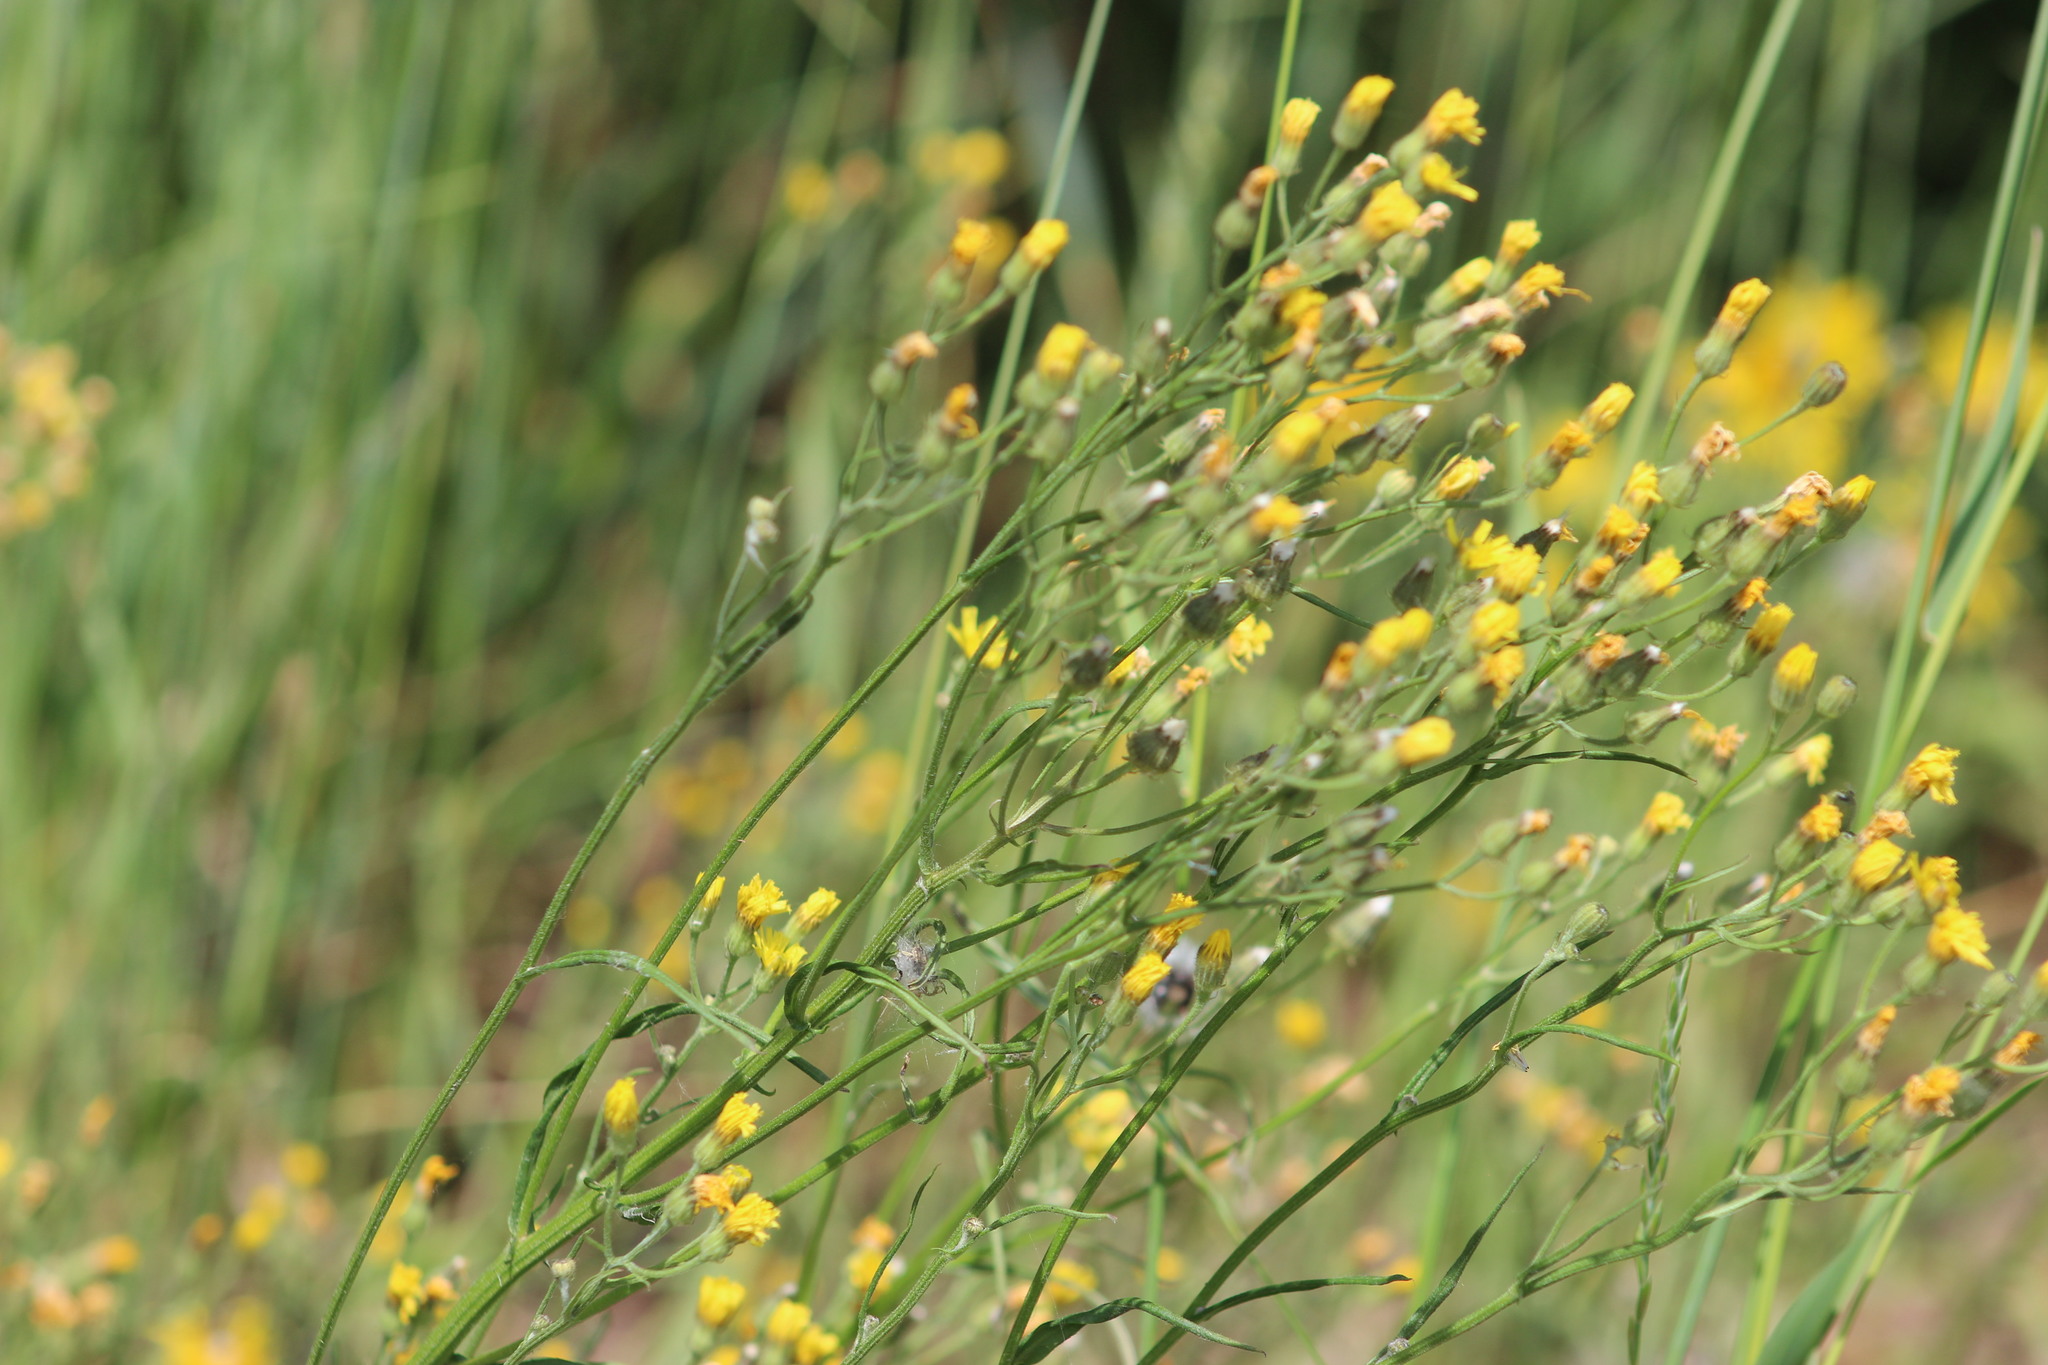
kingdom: Plantae
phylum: Tracheophyta
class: Magnoliopsida
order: Asterales
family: Asteraceae
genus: Crepis
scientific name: Crepis tectorum
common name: Narrow-leaved hawk's-beard
